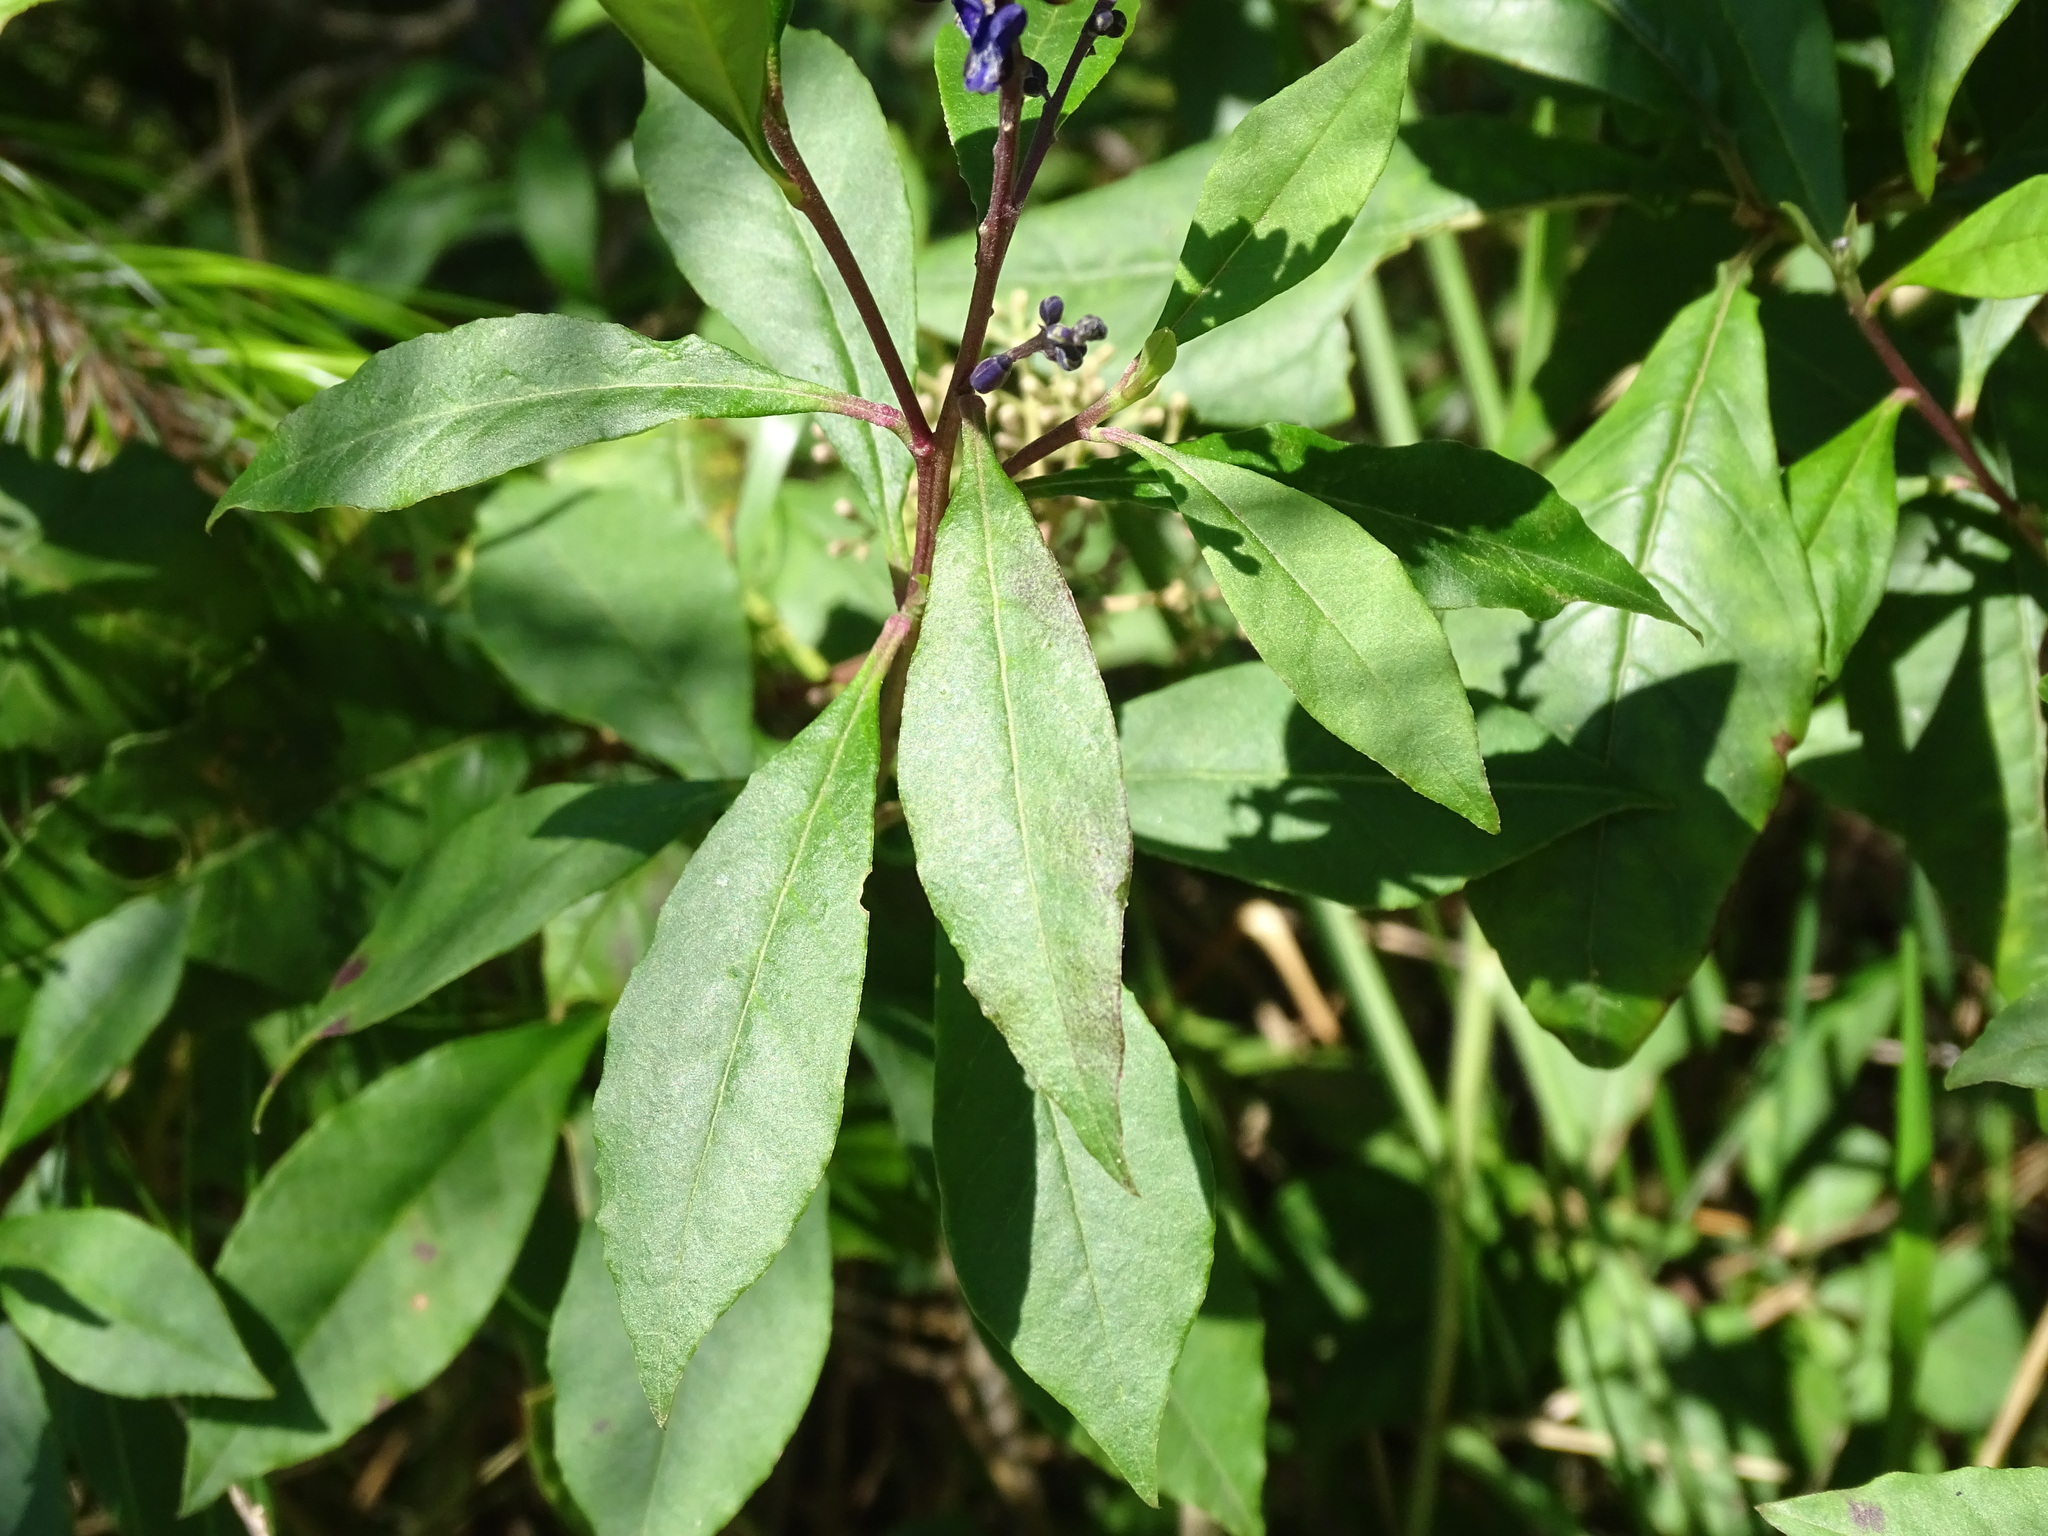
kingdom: Plantae
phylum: Tracheophyta
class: Magnoliopsida
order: Fabales
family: Polygalaceae
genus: Monnina
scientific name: Monnina xalapensis
